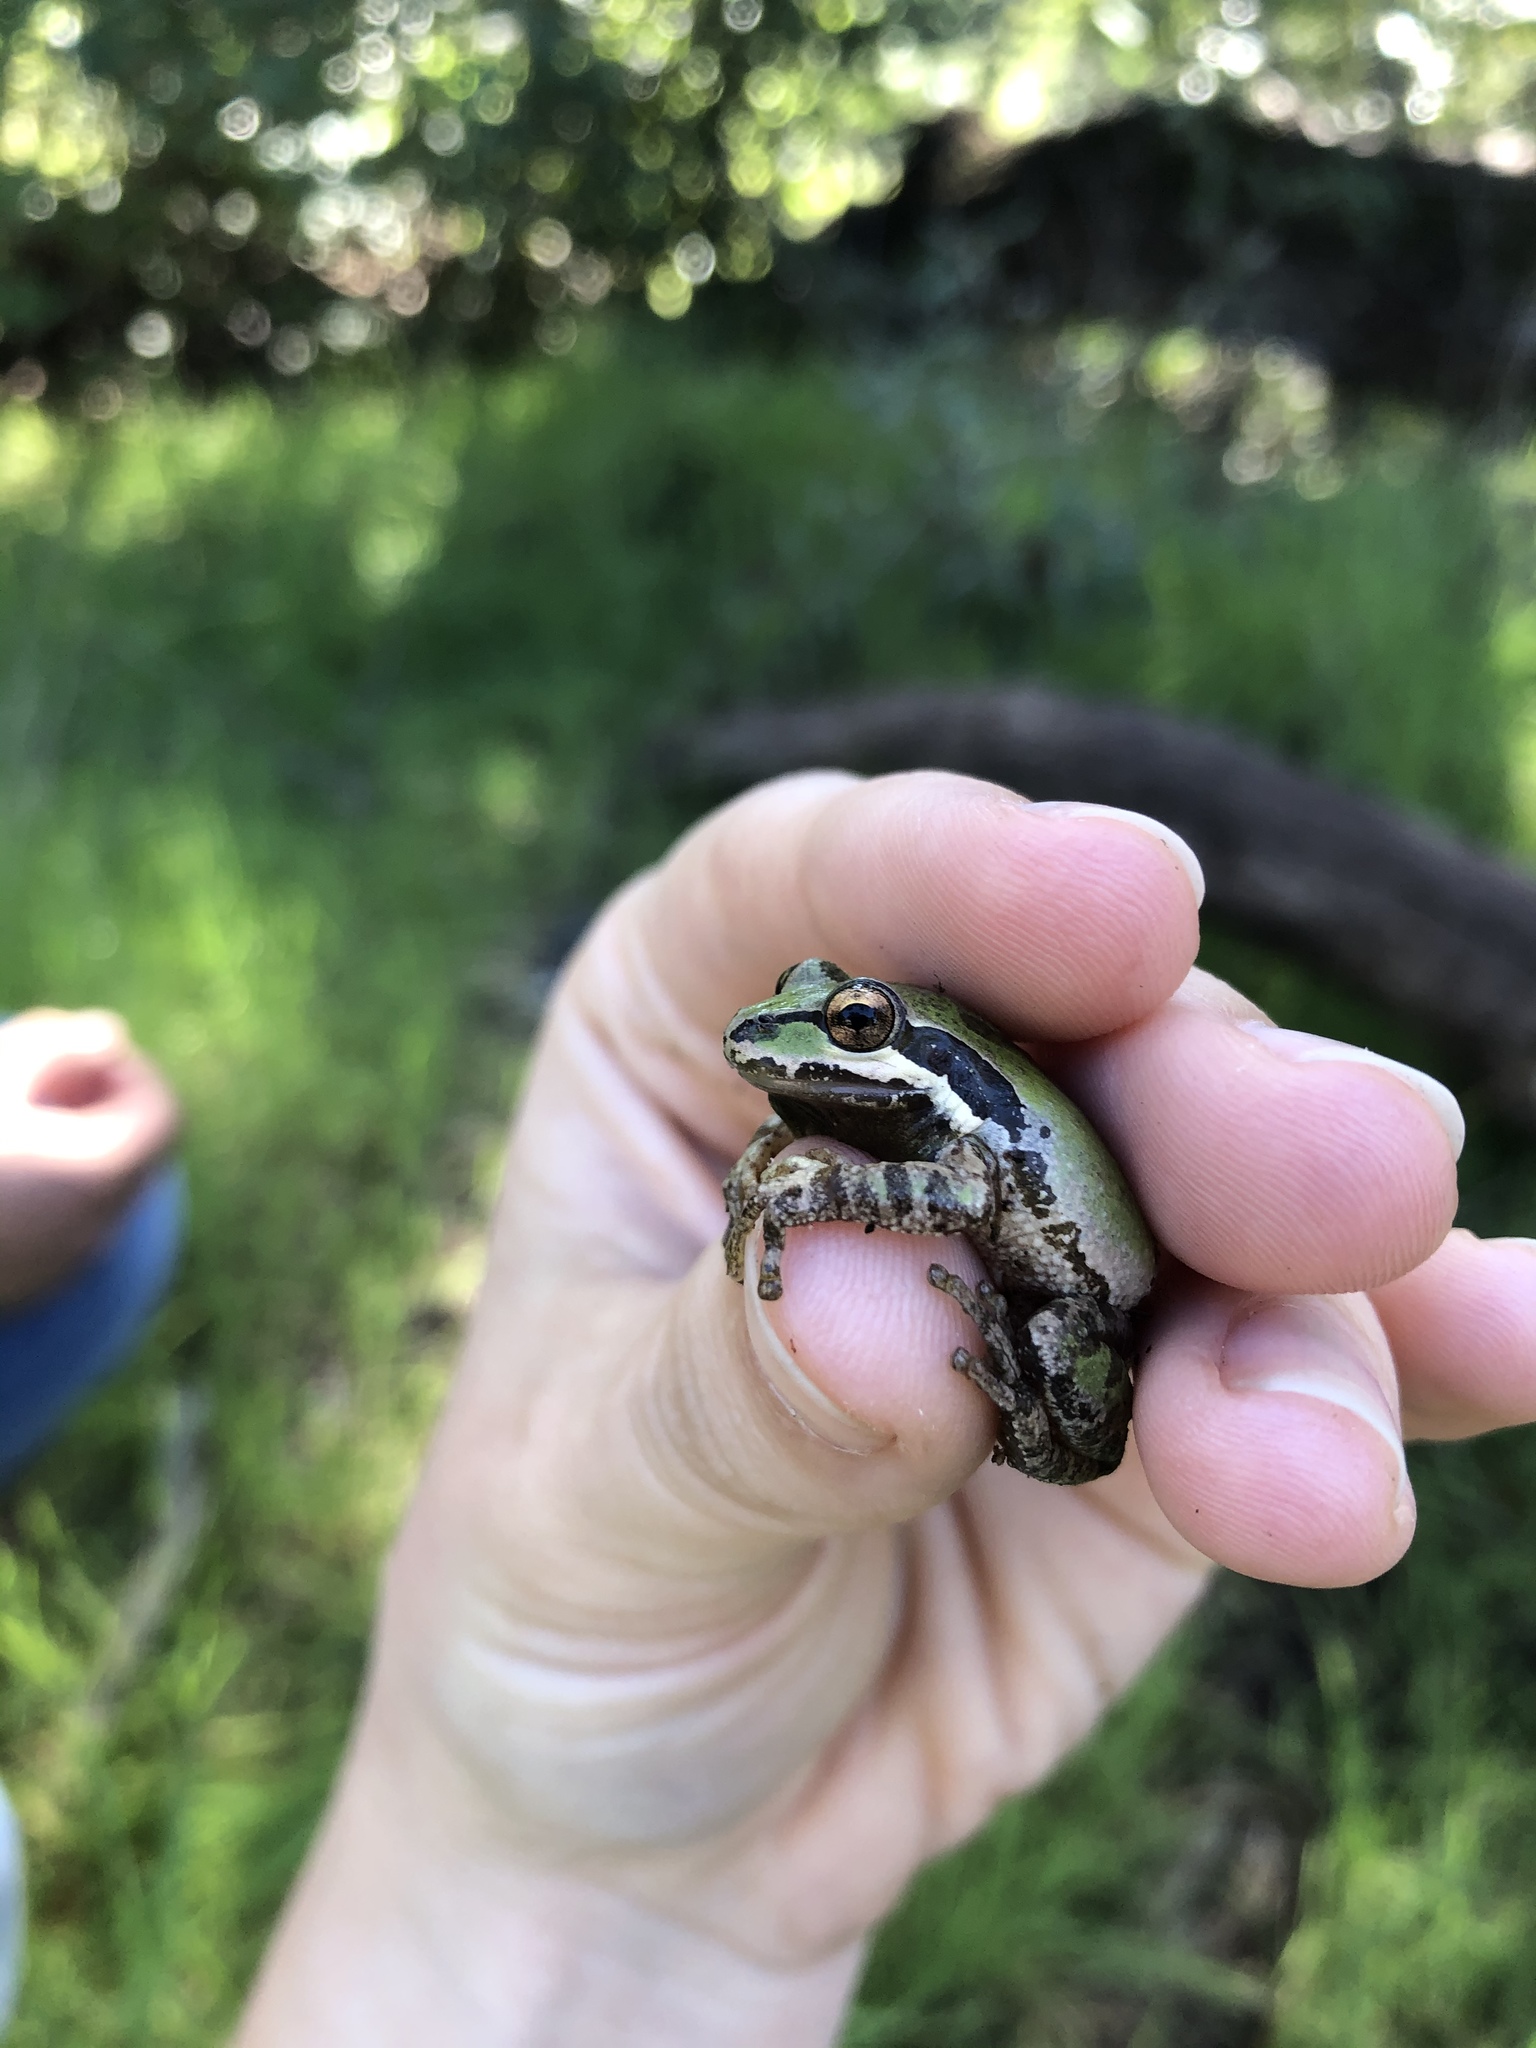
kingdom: Animalia
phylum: Chordata
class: Amphibia
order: Anura
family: Hylidae
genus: Pseudacris
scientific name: Pseudacris regilla
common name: Pacific chorus frog
